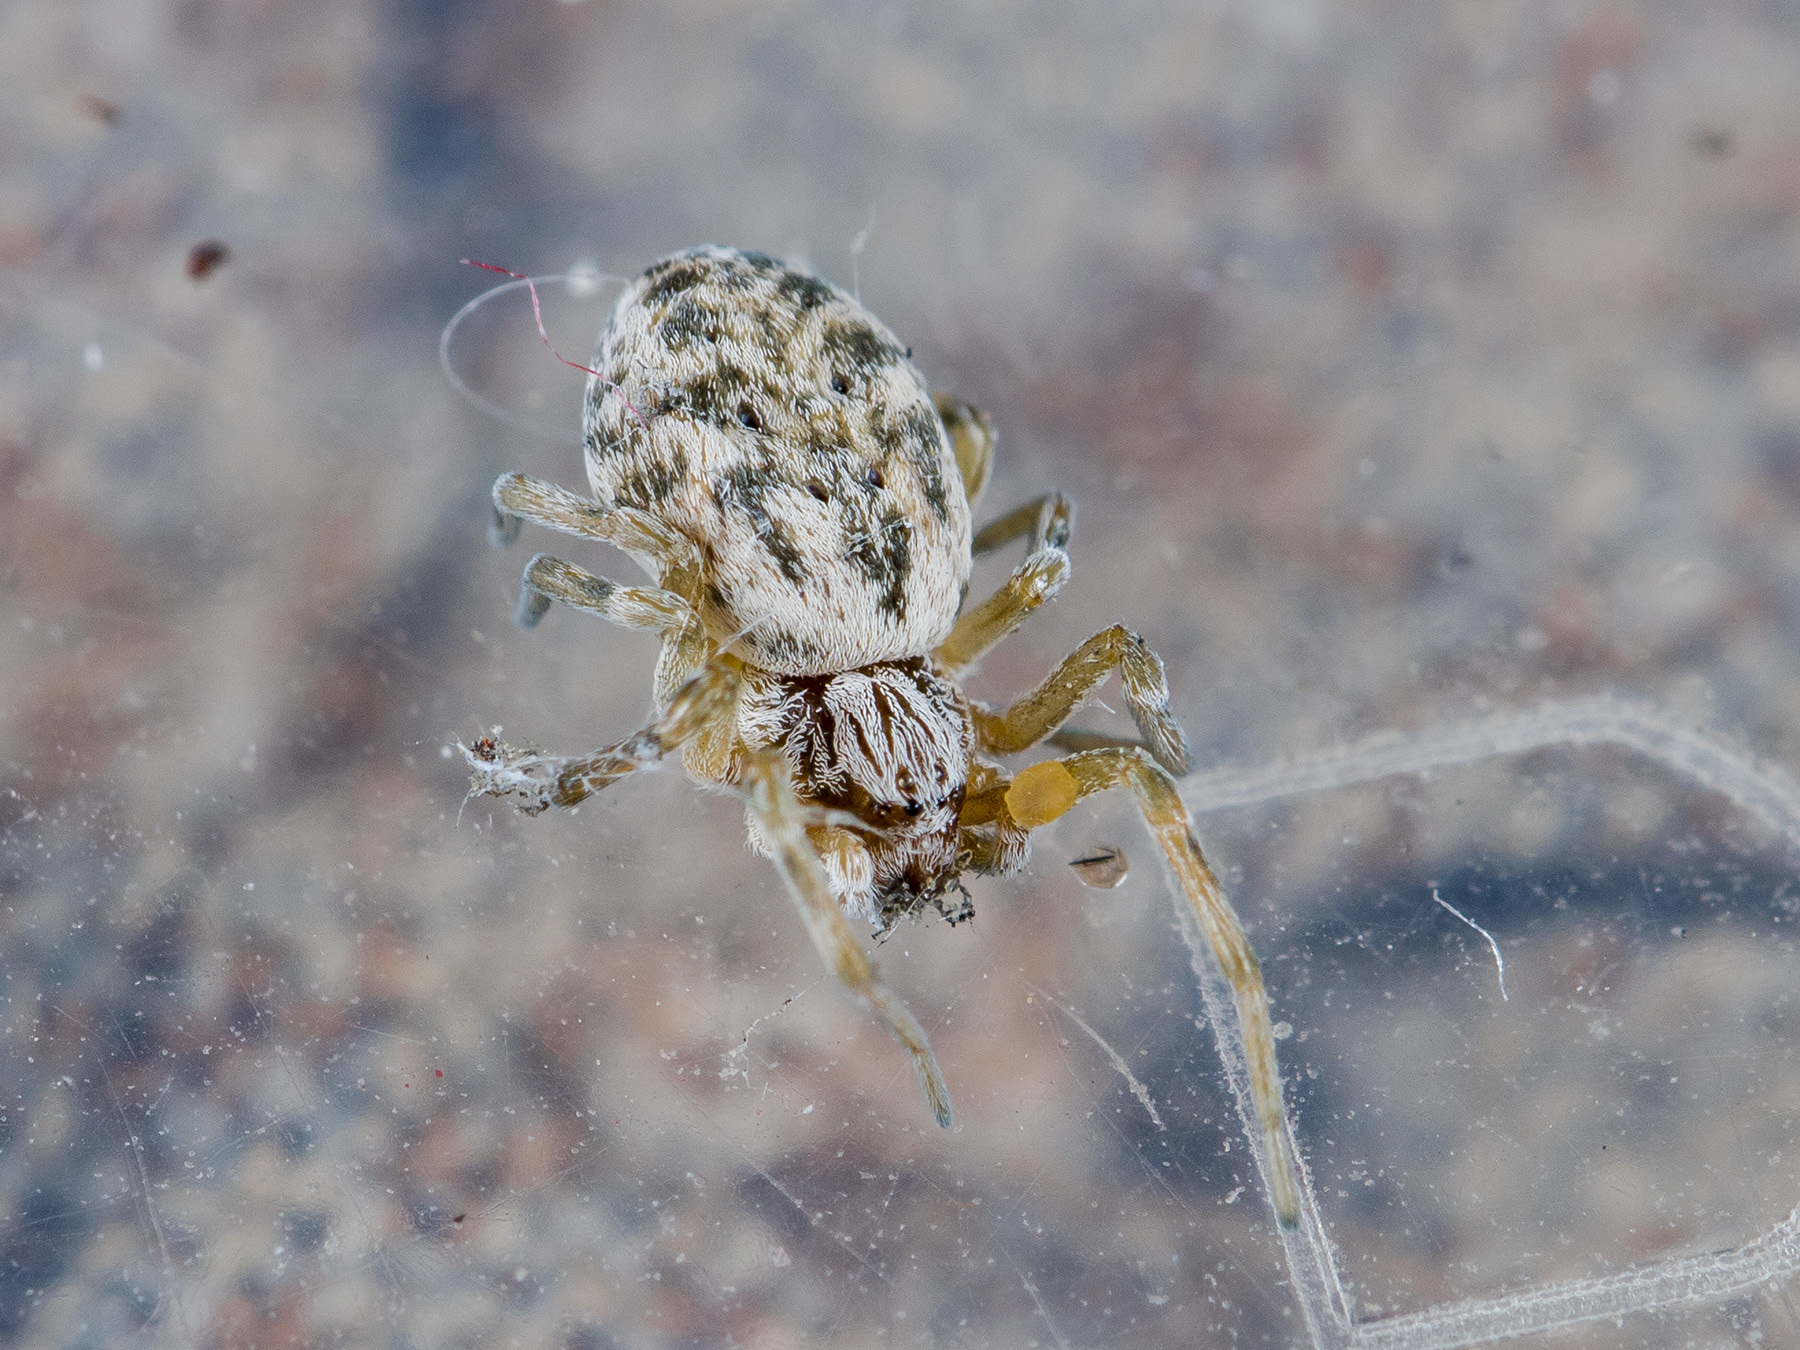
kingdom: Animalia
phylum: Arthropoda
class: Arachnida
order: Araneae
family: Dictynidae
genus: Dictynomorpha
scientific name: Dictynomorpha strandi
